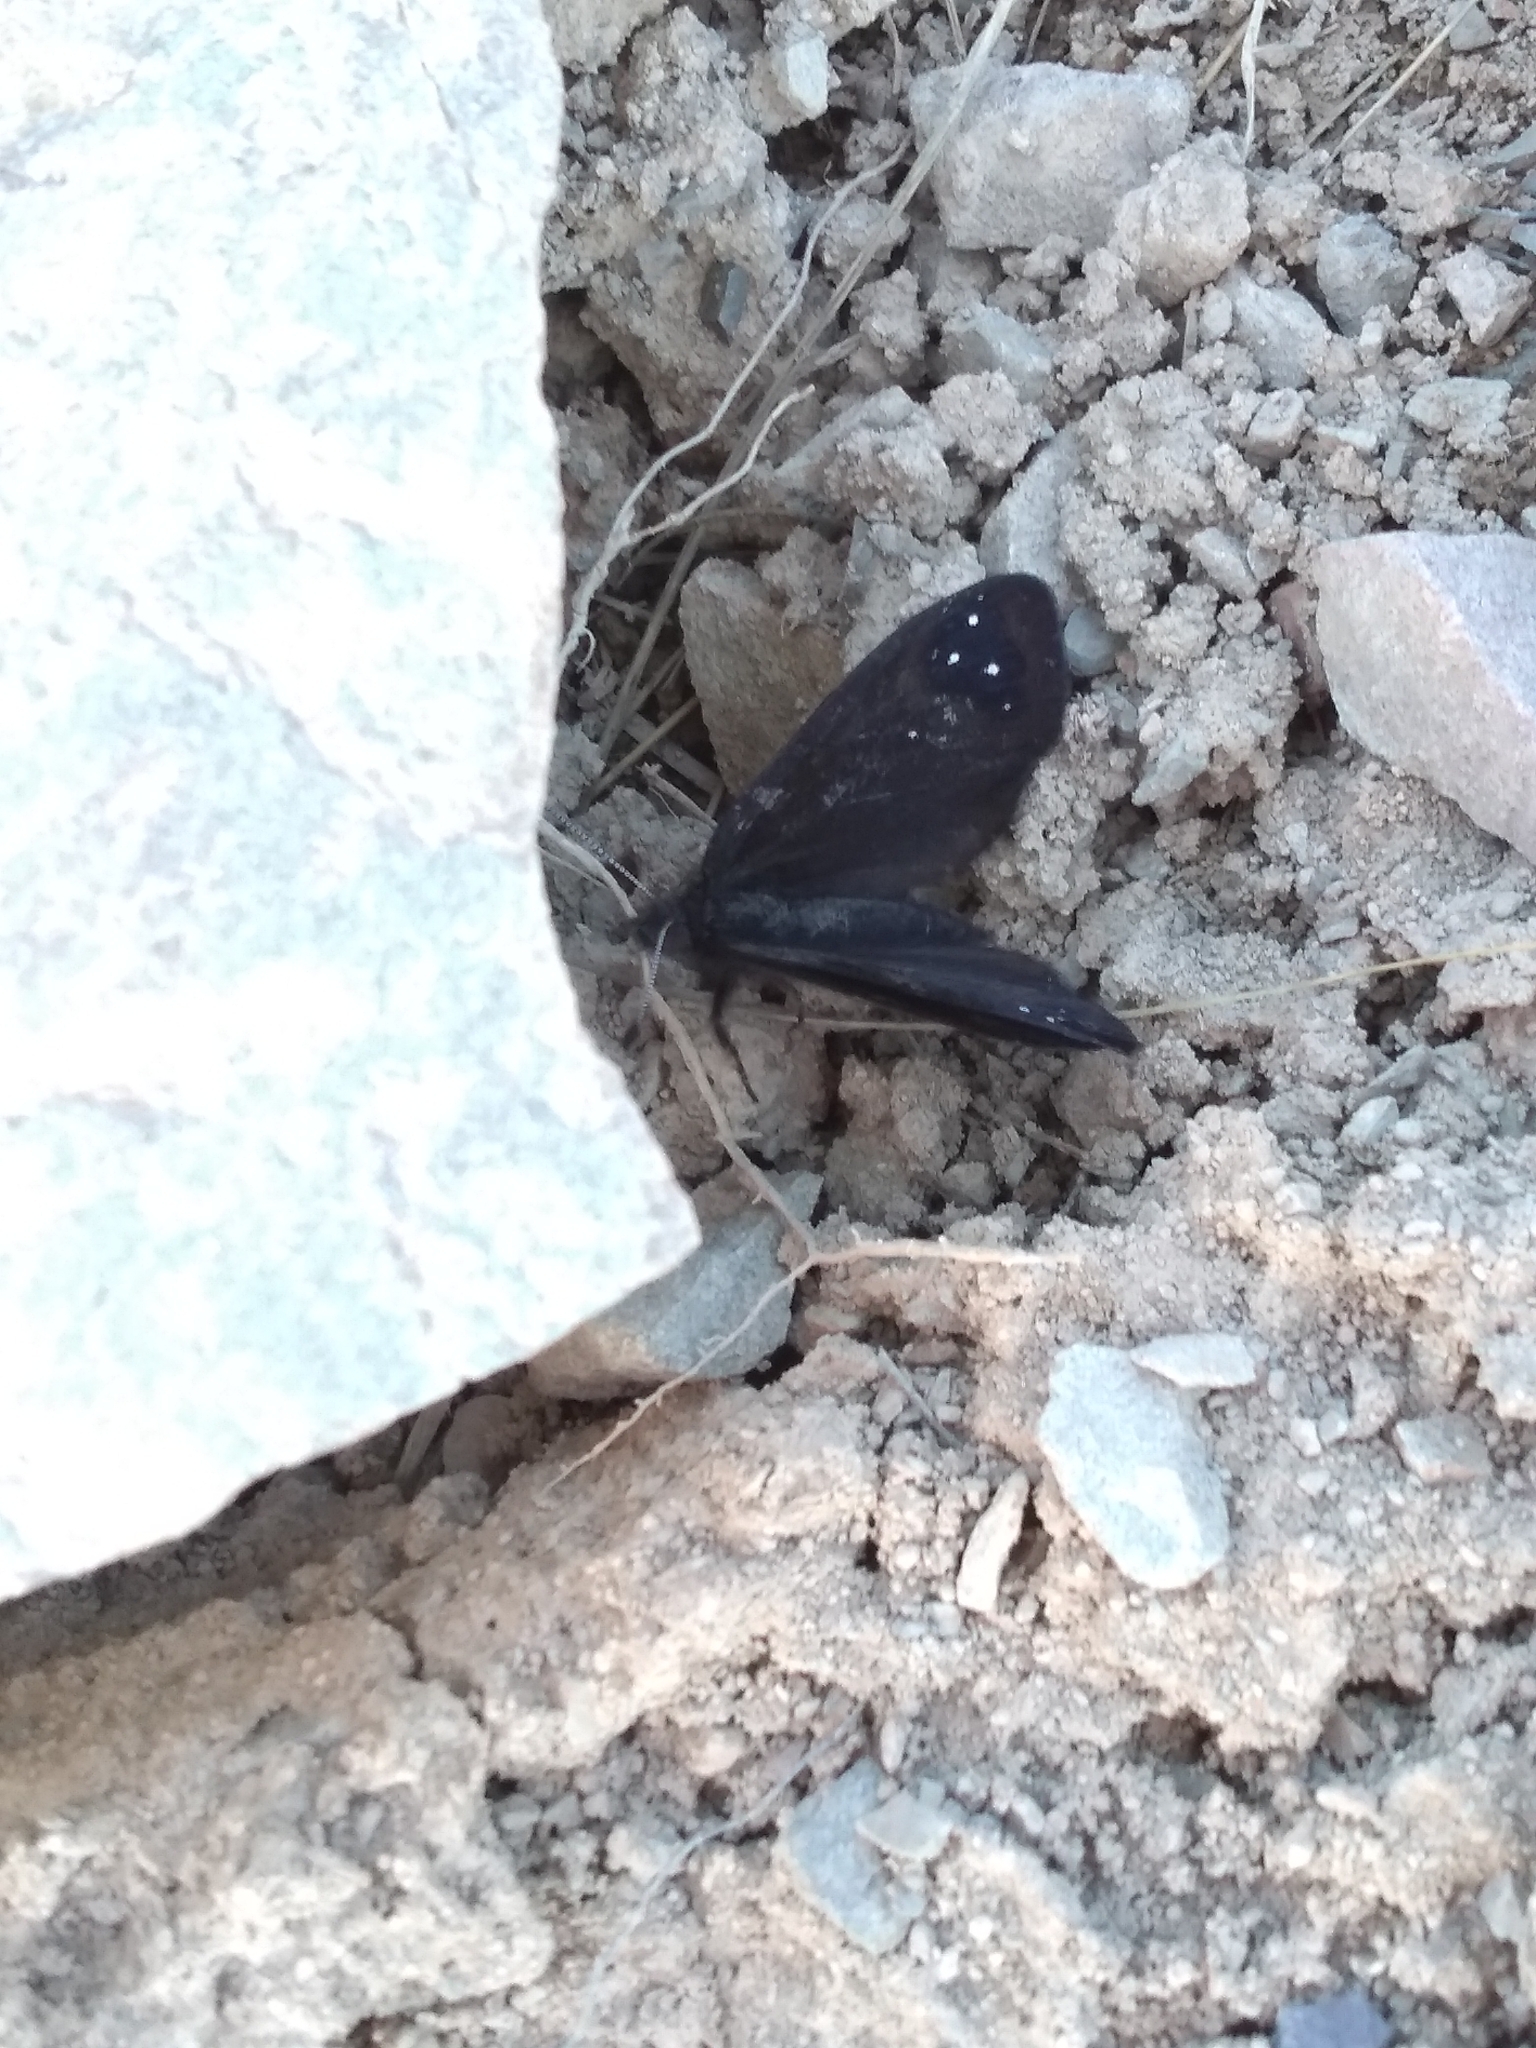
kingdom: Animalia
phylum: Arthropoda
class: Insecta
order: Lepidoptera
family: Nymphalidae
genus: Erebia
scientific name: Erebia Percnodaimon merula
